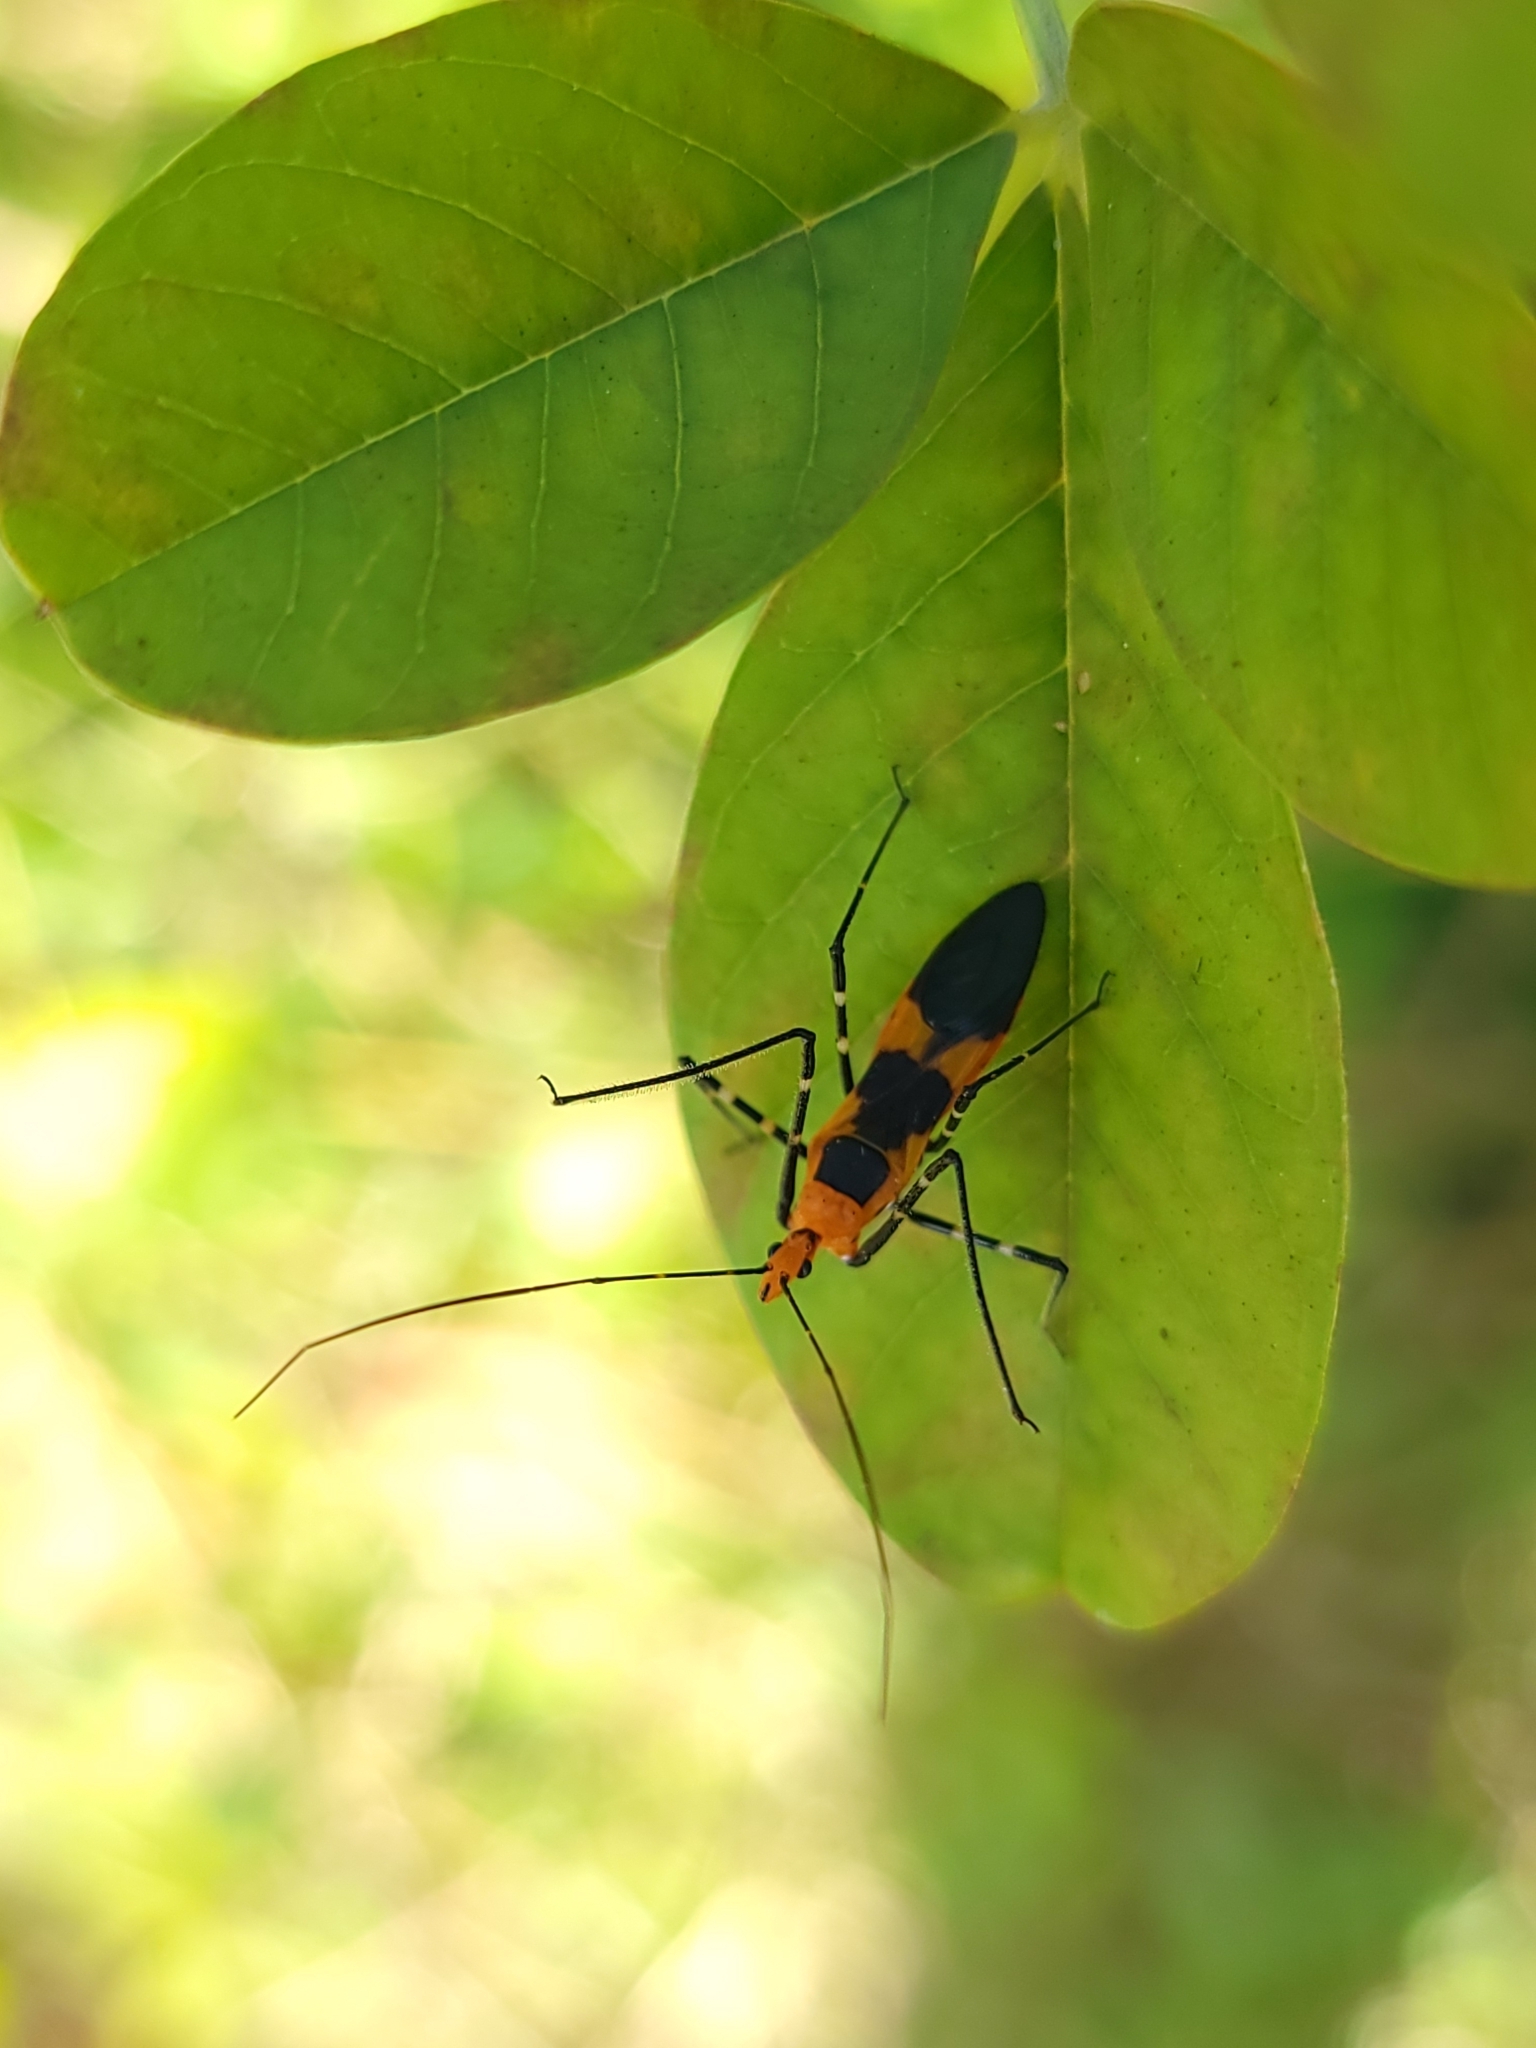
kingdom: Animalia
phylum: Arthropoda
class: Insecta
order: Hemiptera
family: Reduviidae
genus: Zelus
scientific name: Zelus longipes
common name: Milkweed assassin bug
